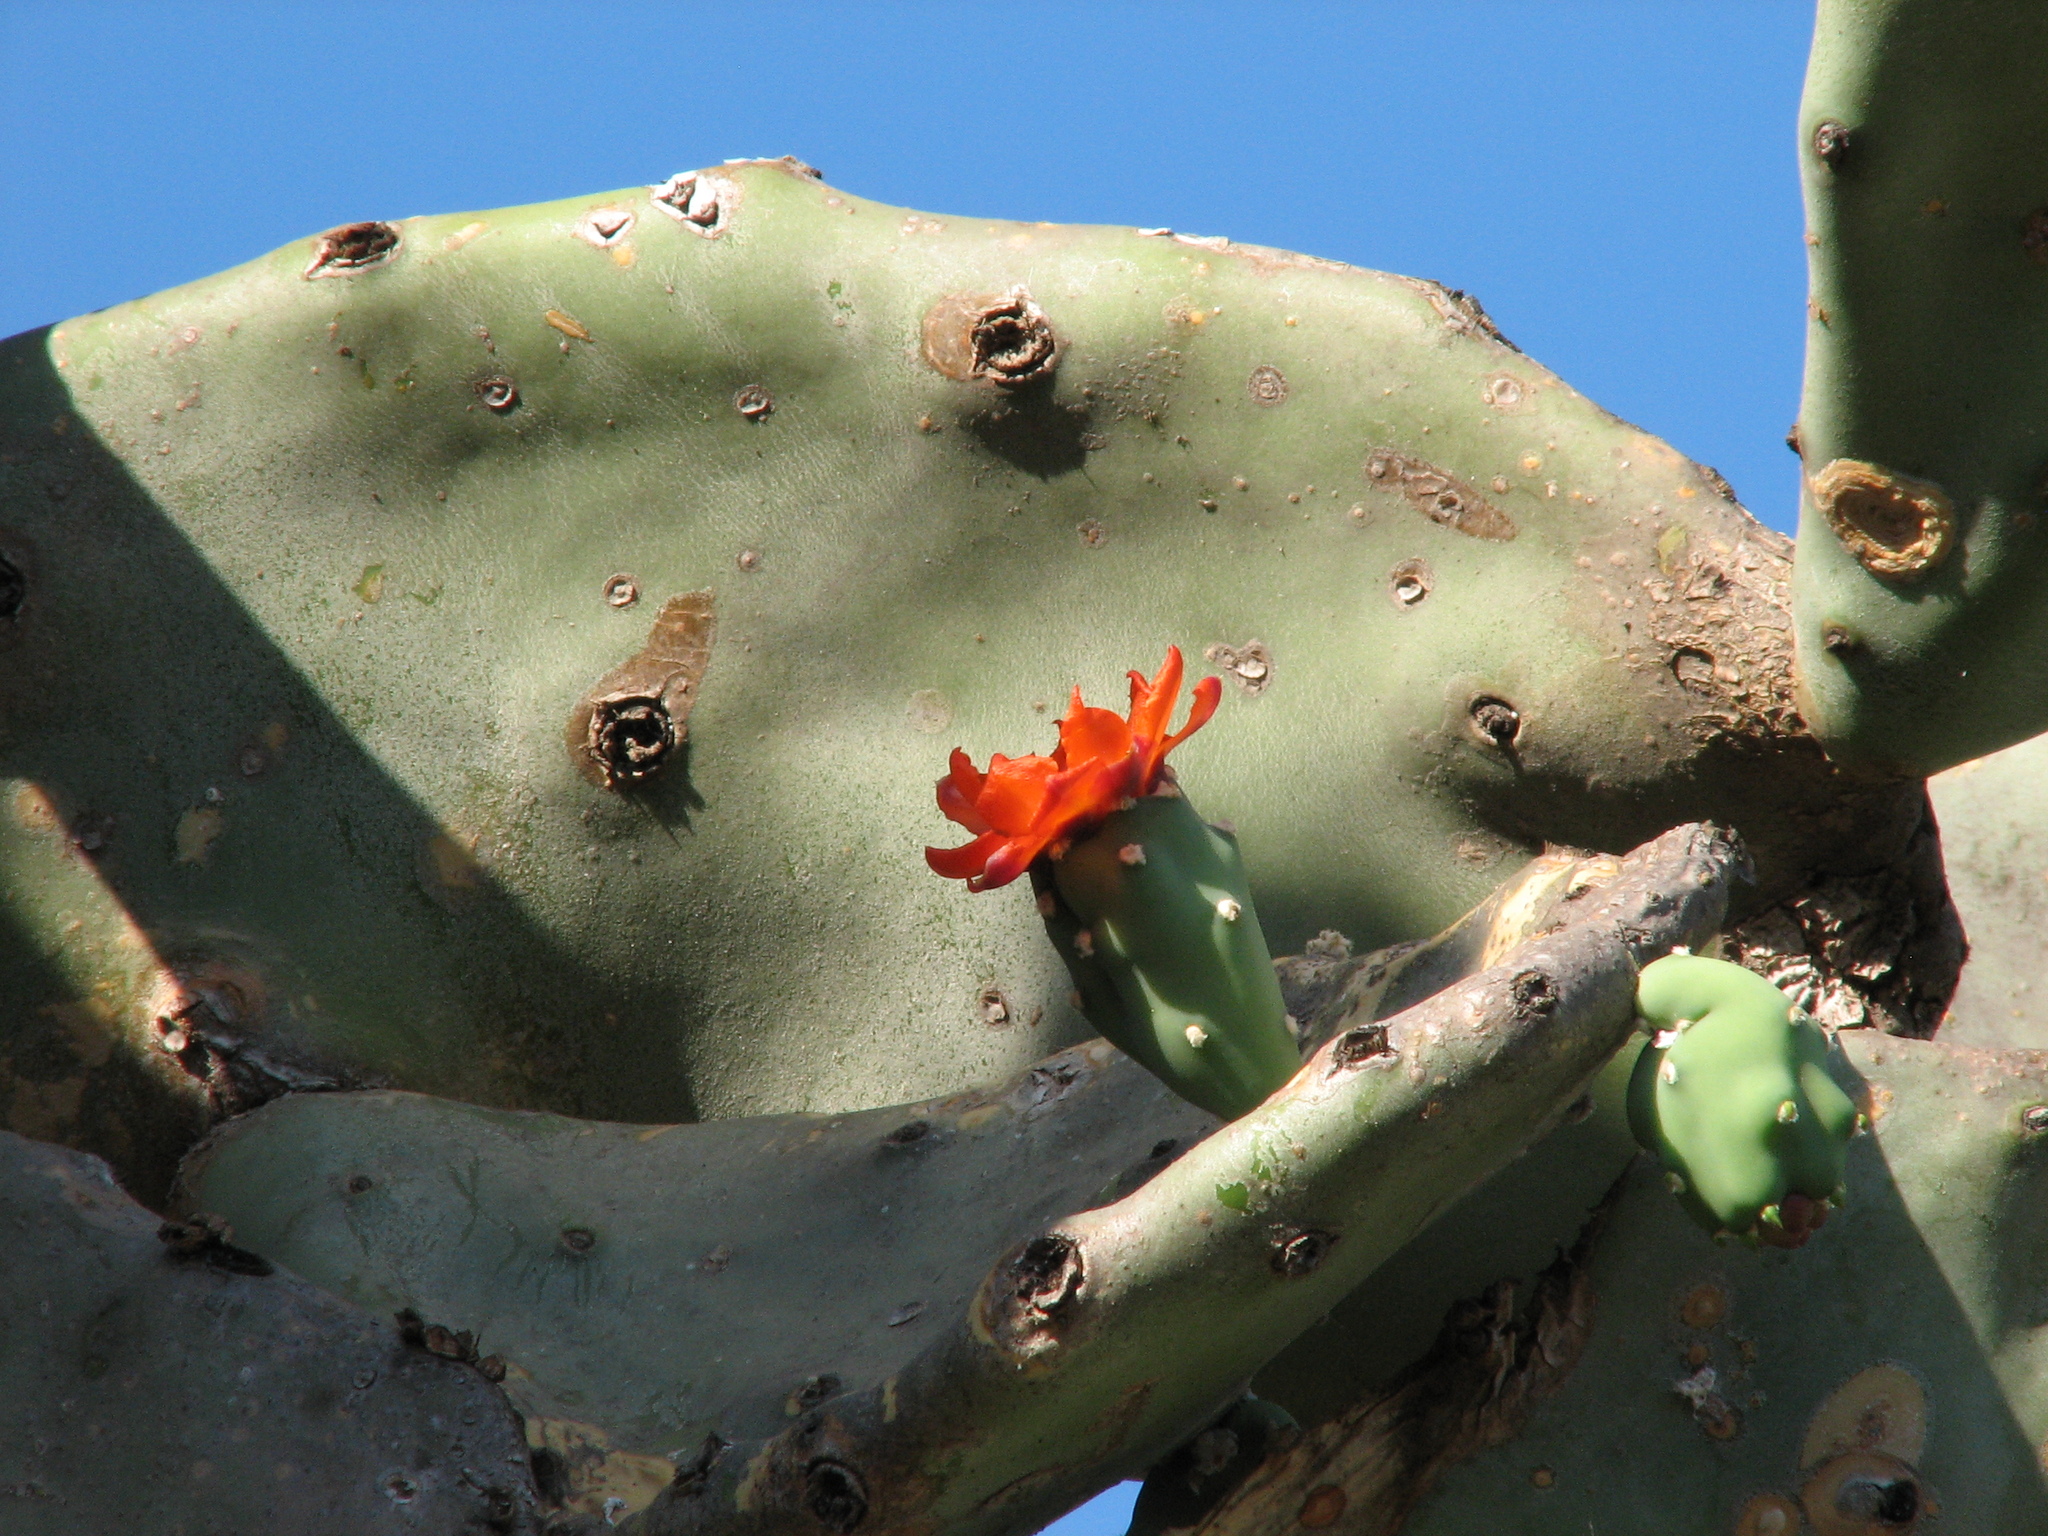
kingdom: Plantae
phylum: Tracheophyta
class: Magnoliopsida
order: Caryophyllales
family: Cactaceae
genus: Opuntia
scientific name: Opuntia quimilo
